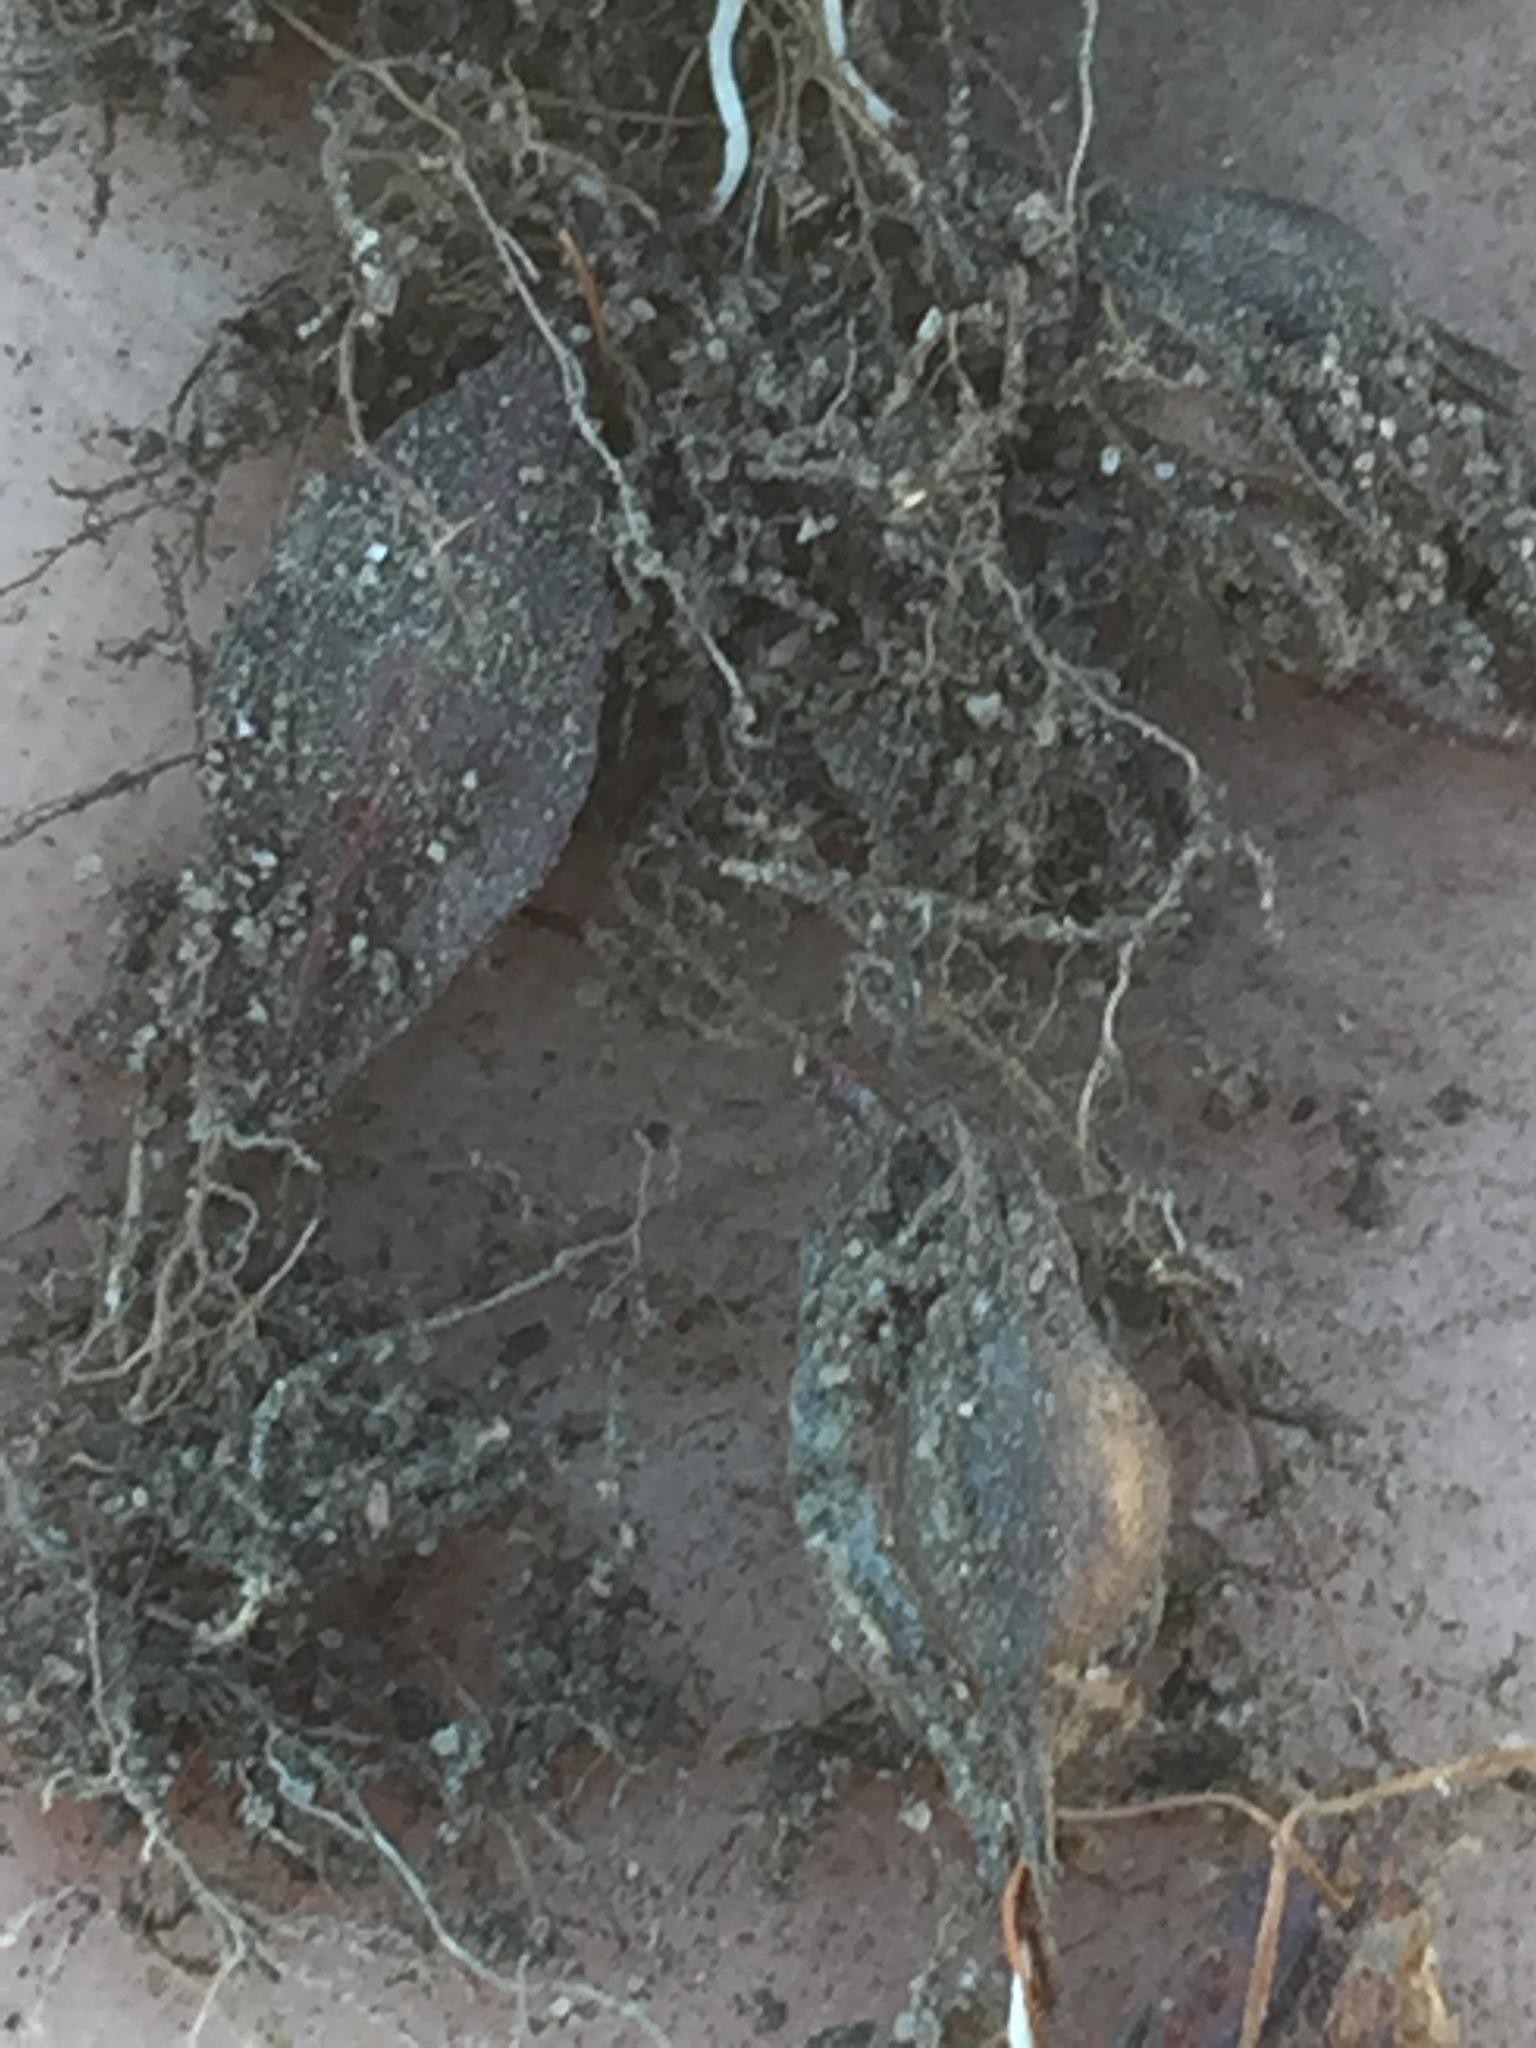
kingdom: Plantae
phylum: Tracheophyta
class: Magnoliopsida
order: Oxalidales
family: Oxalidaceae
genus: Oxalis
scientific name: Oxalis punctata
